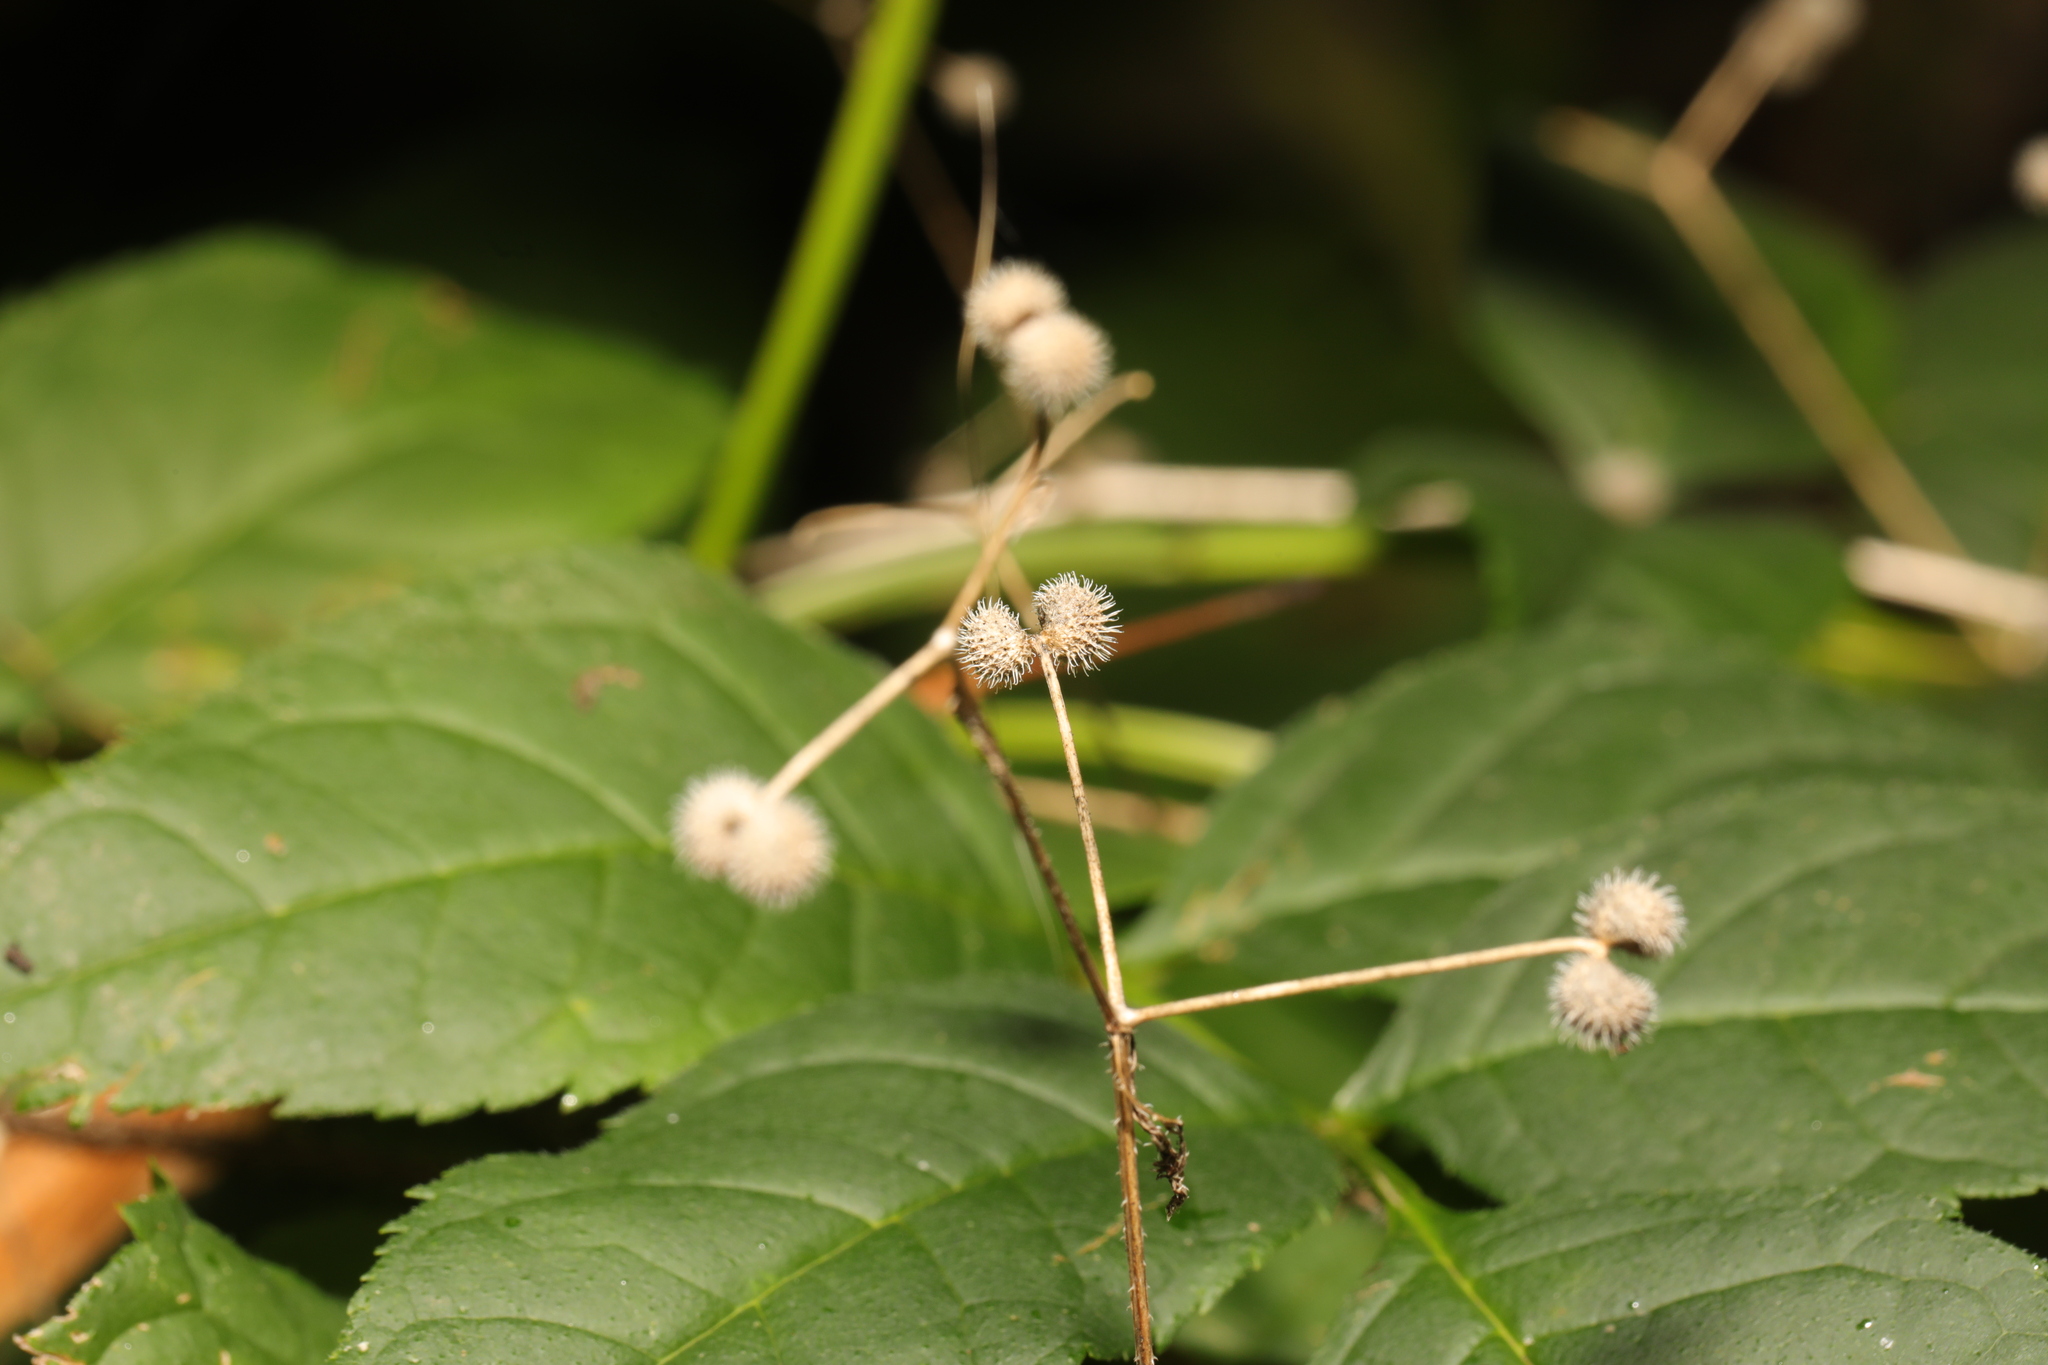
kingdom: Plantae
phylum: Tracheophyta
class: Magnoliopsida
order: Gentianales
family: Rubiaceae
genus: Galium
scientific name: Galium aparine
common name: Cleavers
